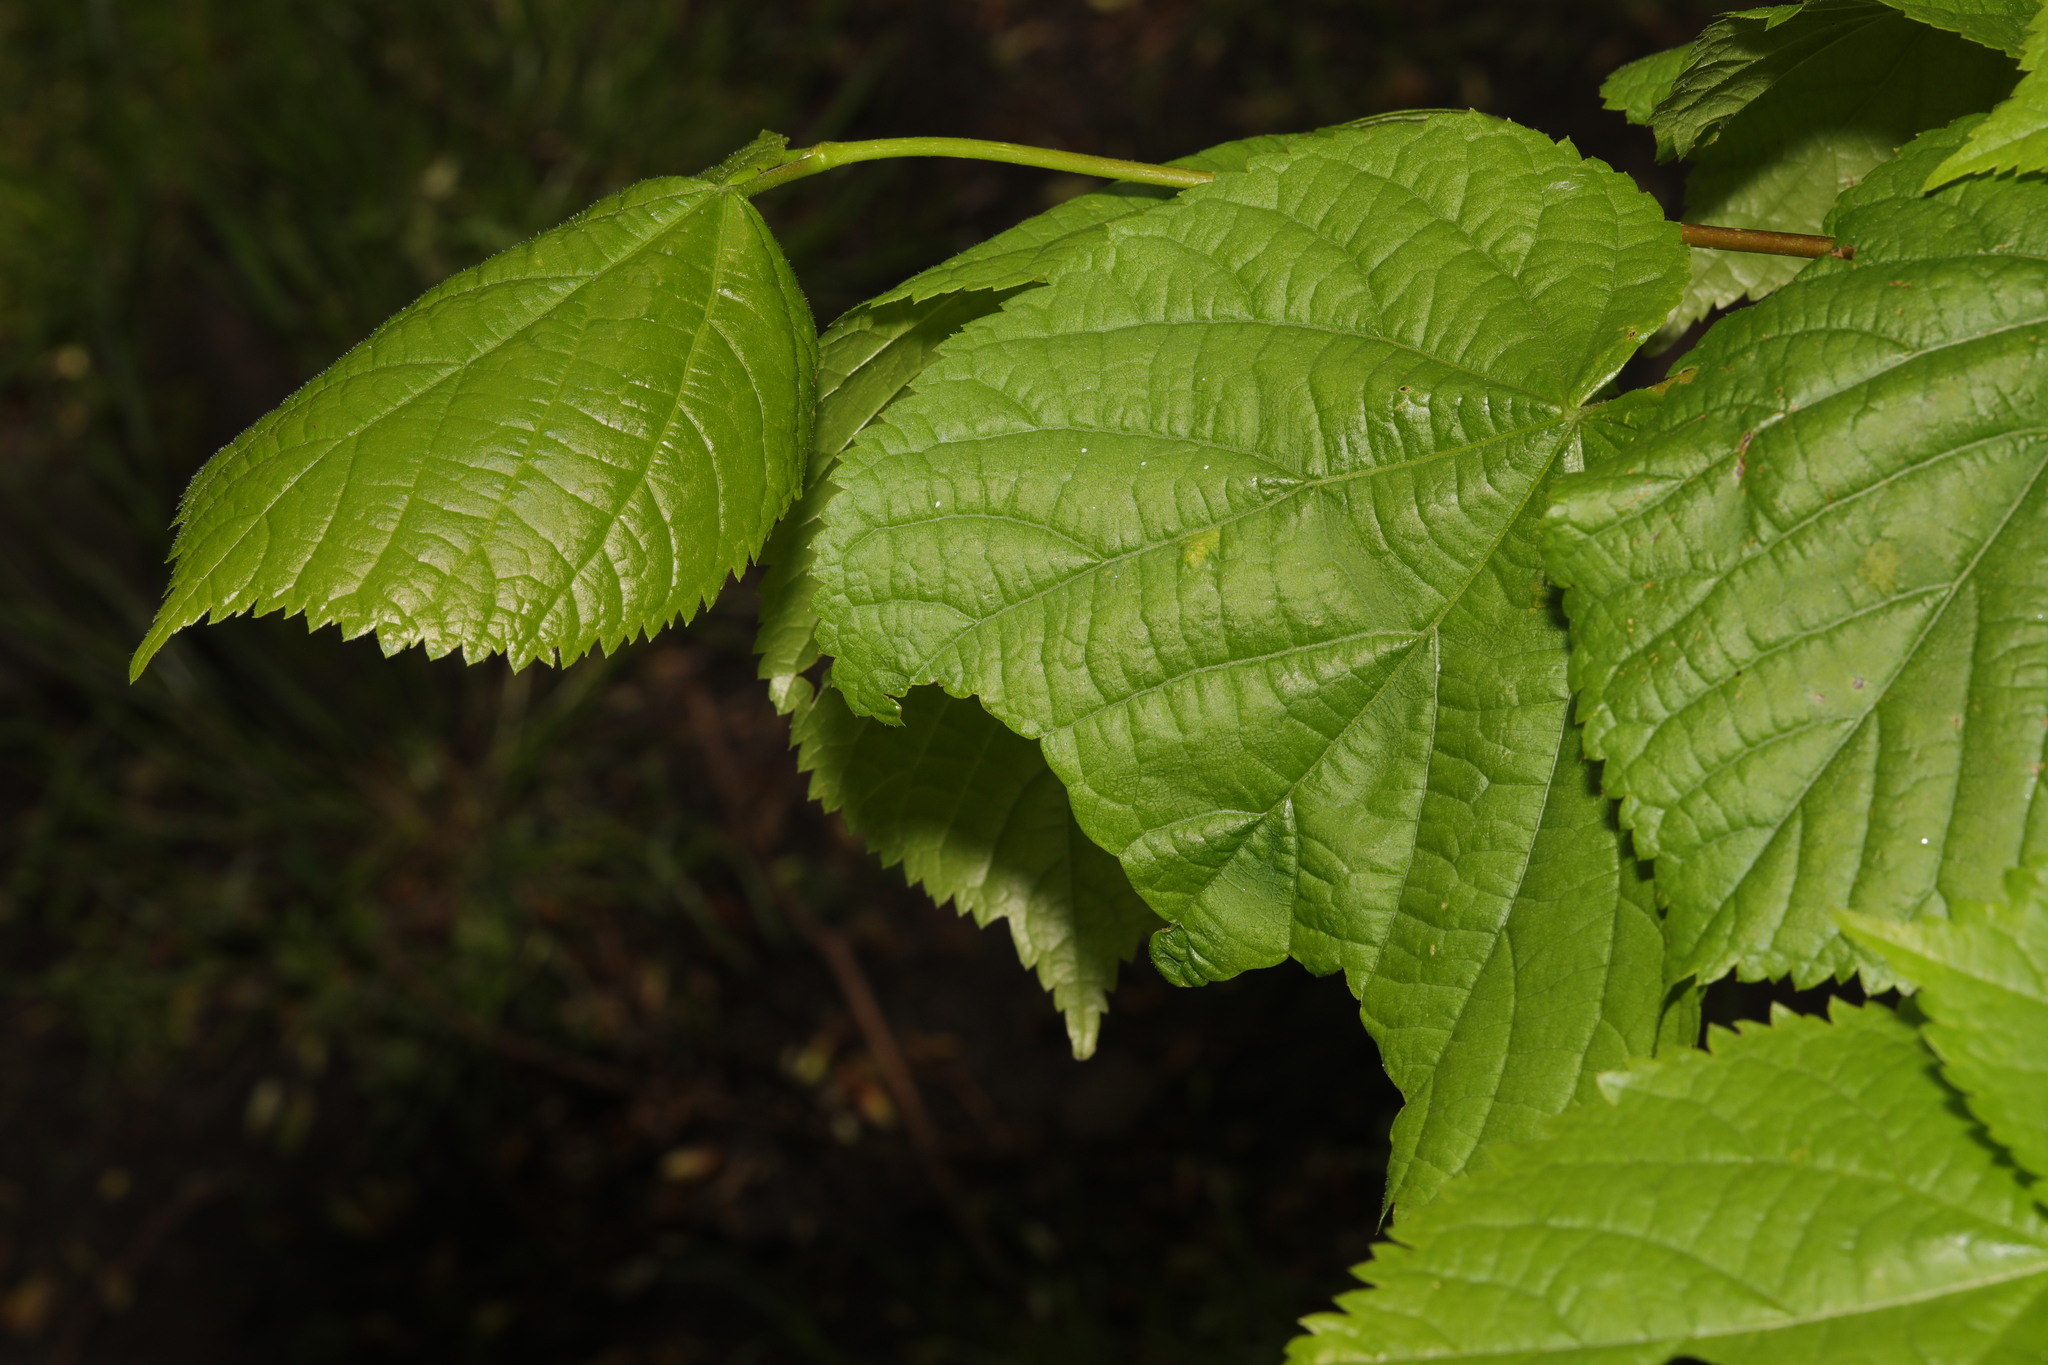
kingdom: Plantae
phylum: Tracheophyta
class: Magnoliopsida
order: Malvales
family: Malvaceae
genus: Tilia
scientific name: Tilia europaea
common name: European linden
